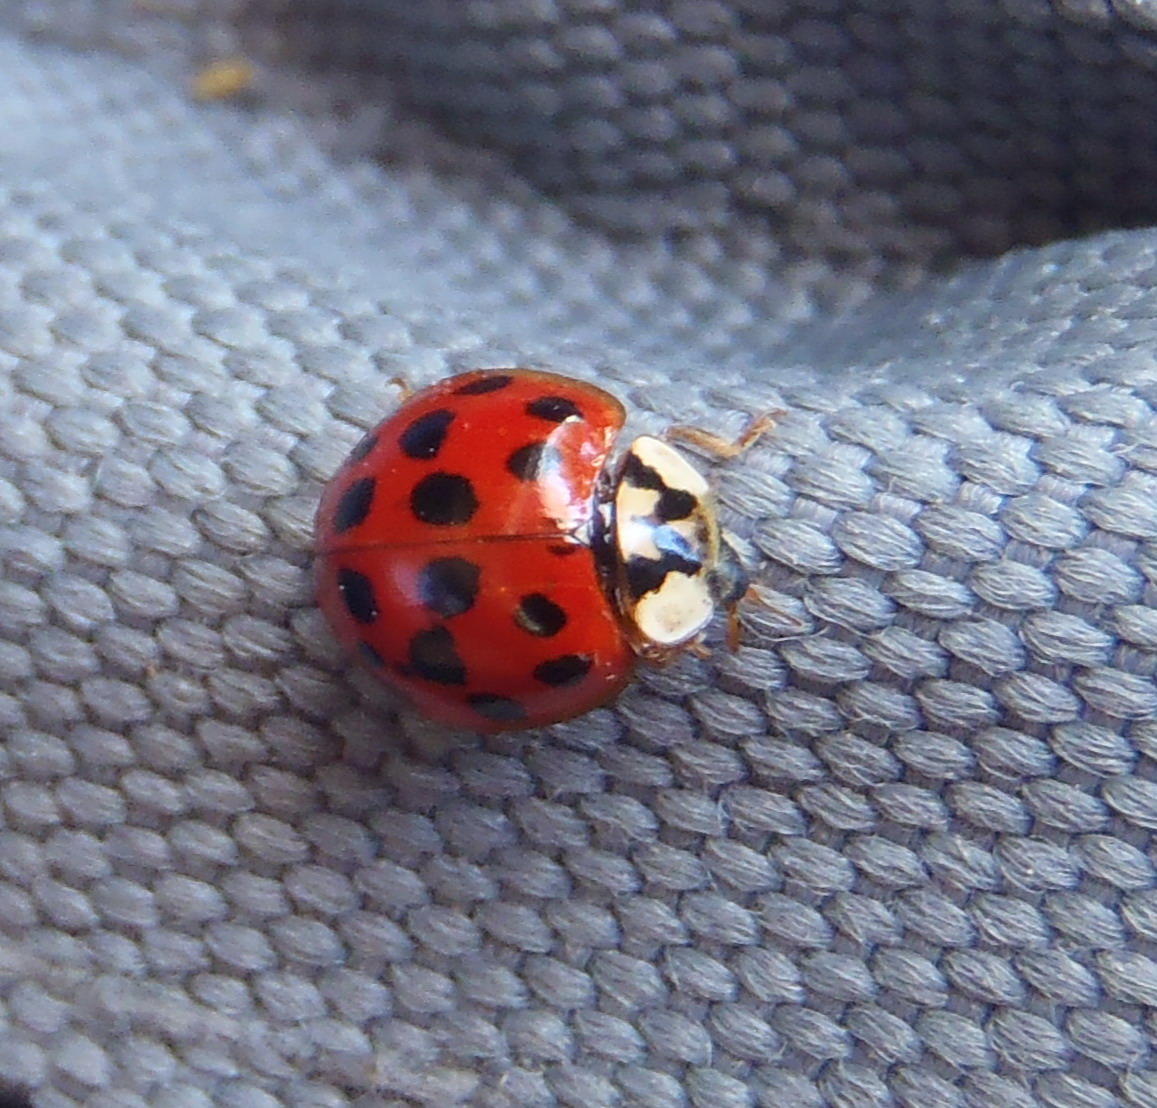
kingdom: Animalia
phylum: Arthropoda
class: Insecta
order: Coleoptera
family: Coccinellidae
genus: Harmonia
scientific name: Harmonia axyridis
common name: Harlequin ladybird
